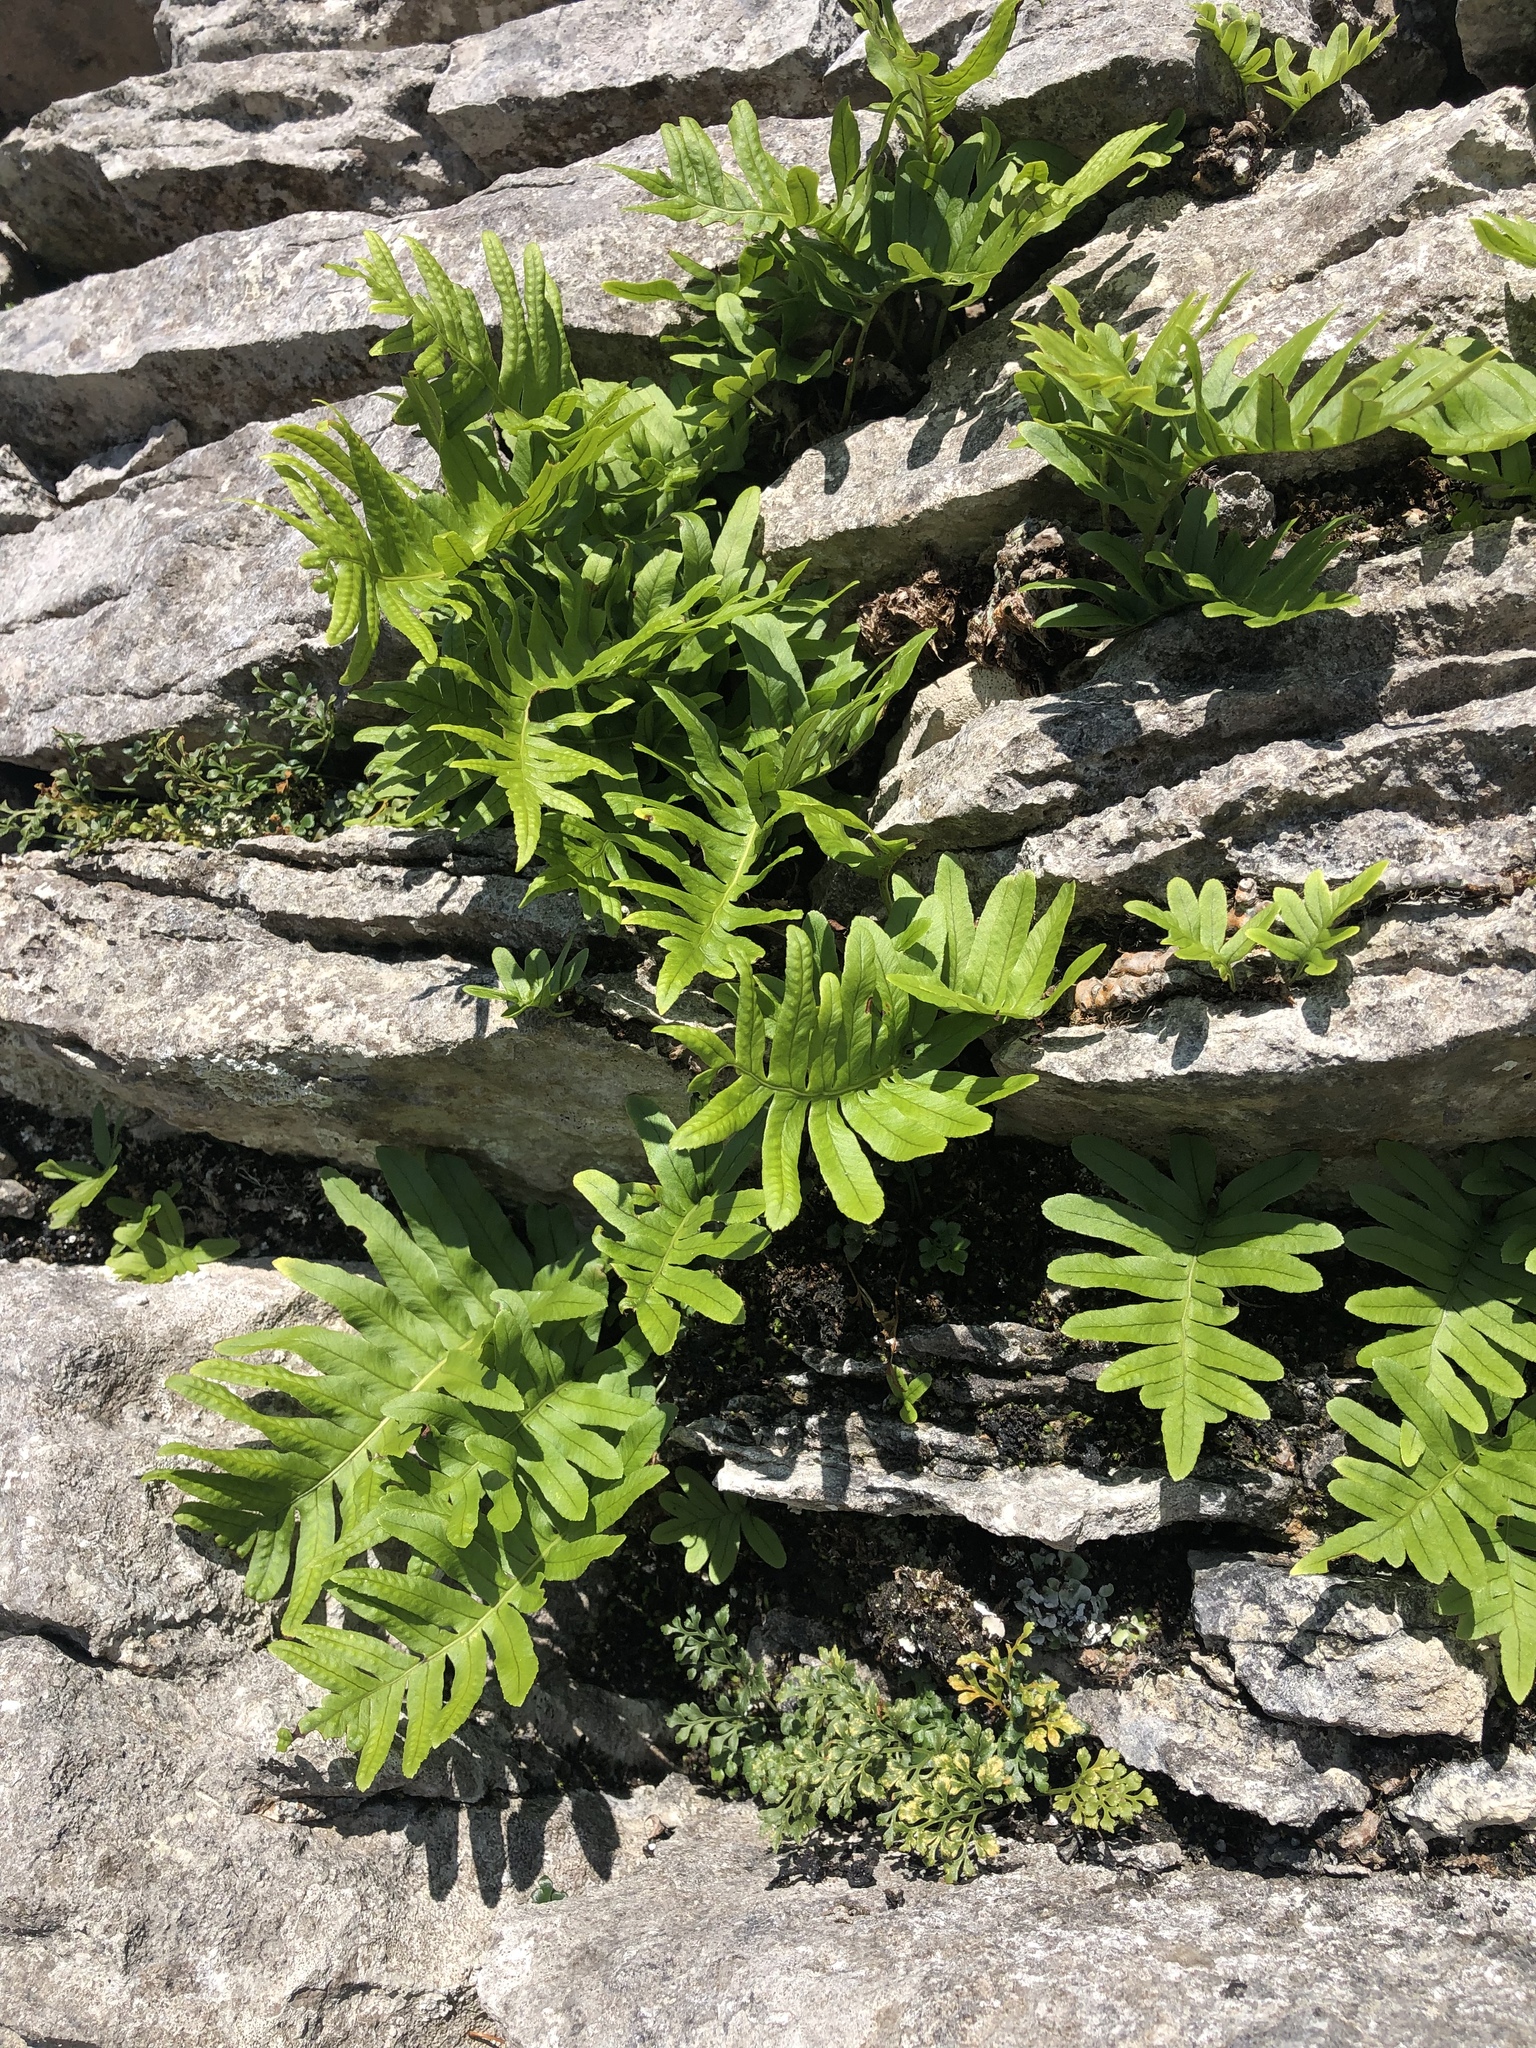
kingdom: Plantae
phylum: Tracheophyta
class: Polypodiopsida
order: Polypodiales
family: Polypodiaceae
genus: Polypodium
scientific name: Polypodium vulgare
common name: Common polypody
